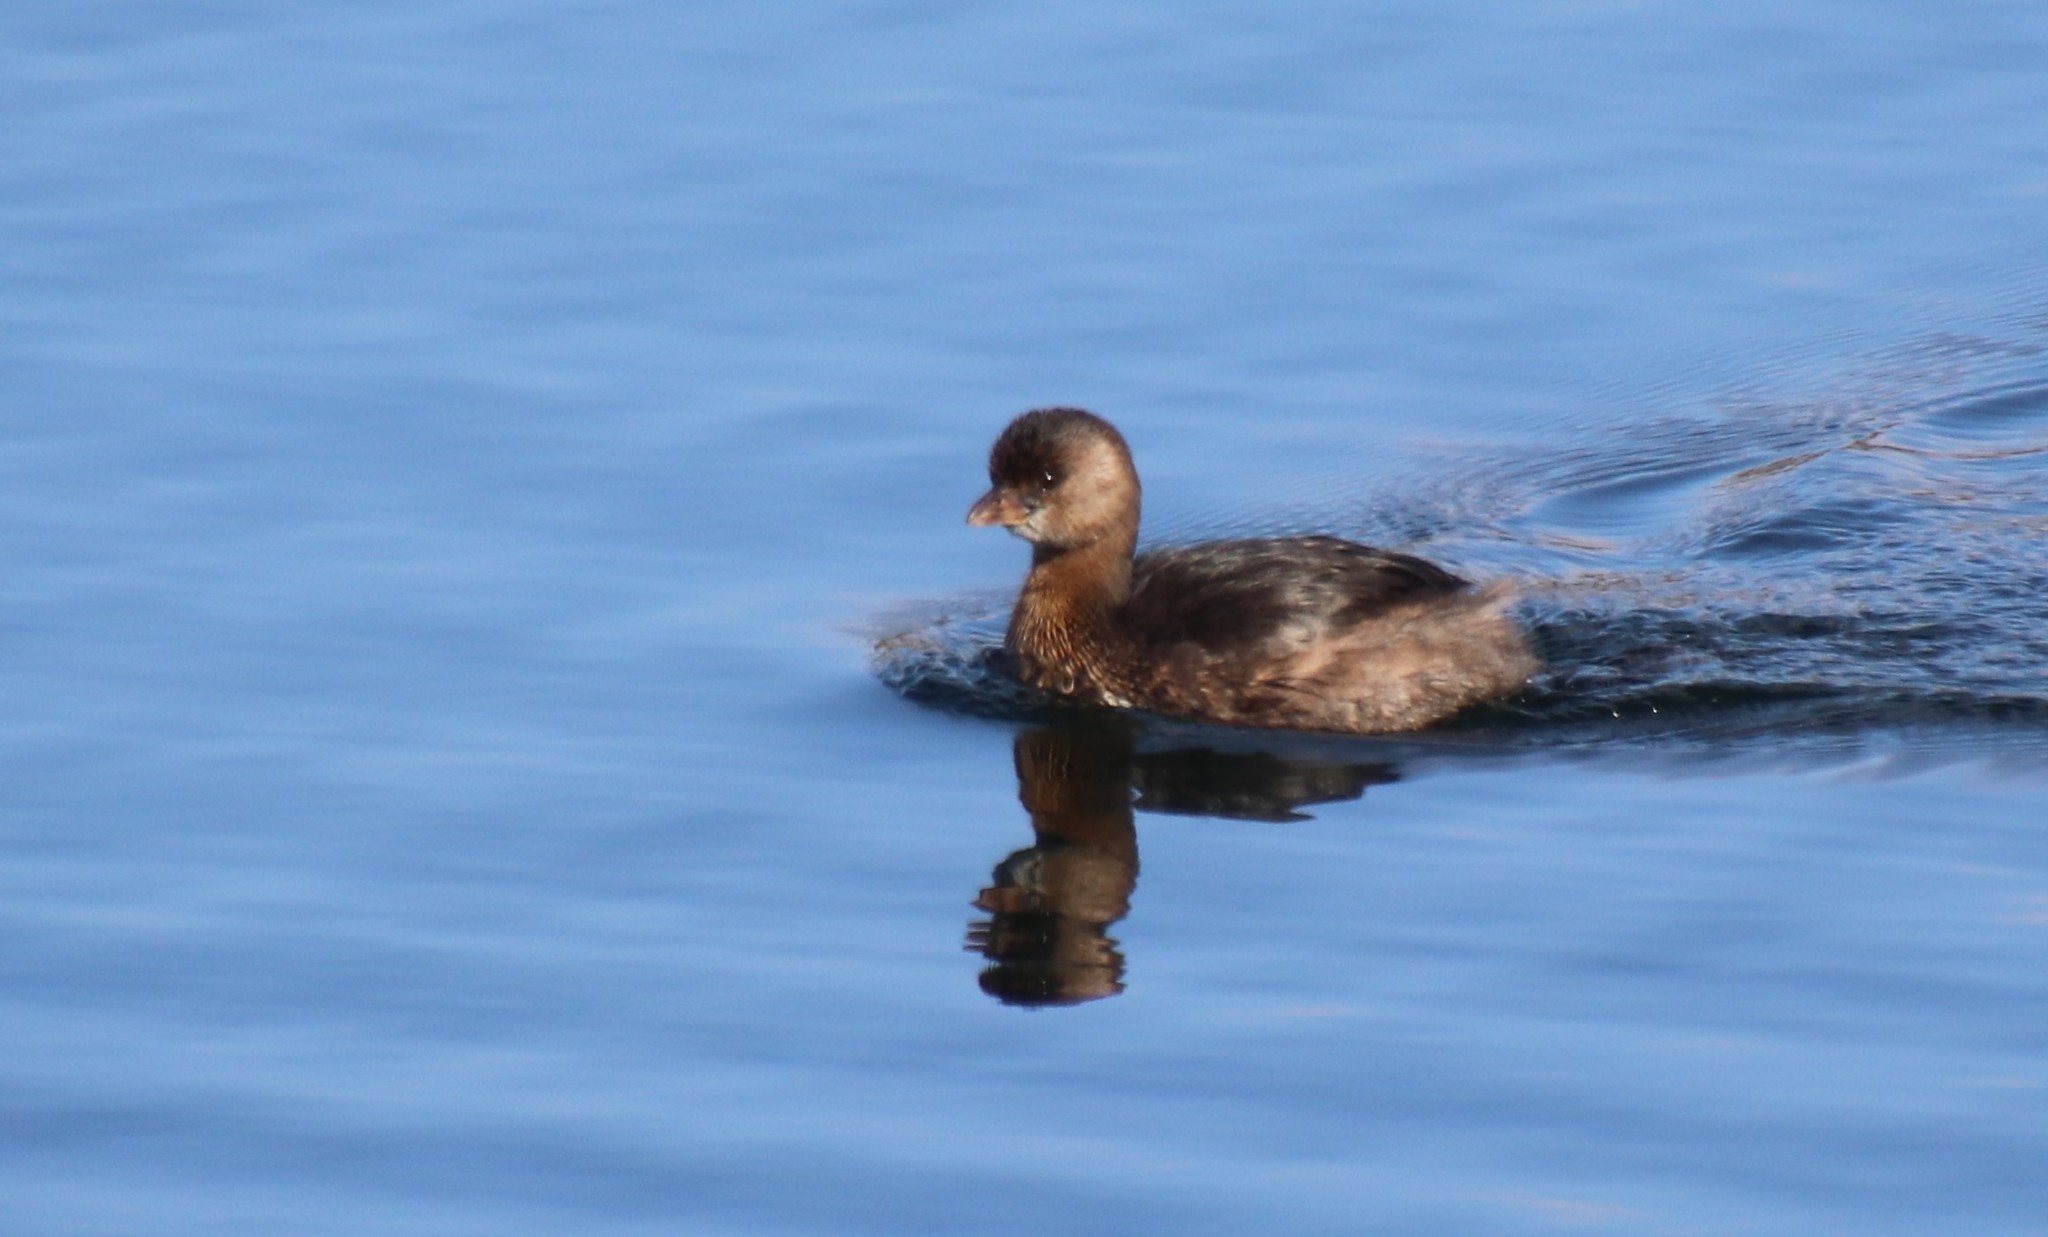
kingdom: Animalia
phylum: Chordata
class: Aves
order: Podicipediformes
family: Podicipedidae
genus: Podilymbus
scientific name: Podilymbus podiceps
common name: Pied-billed grebe
